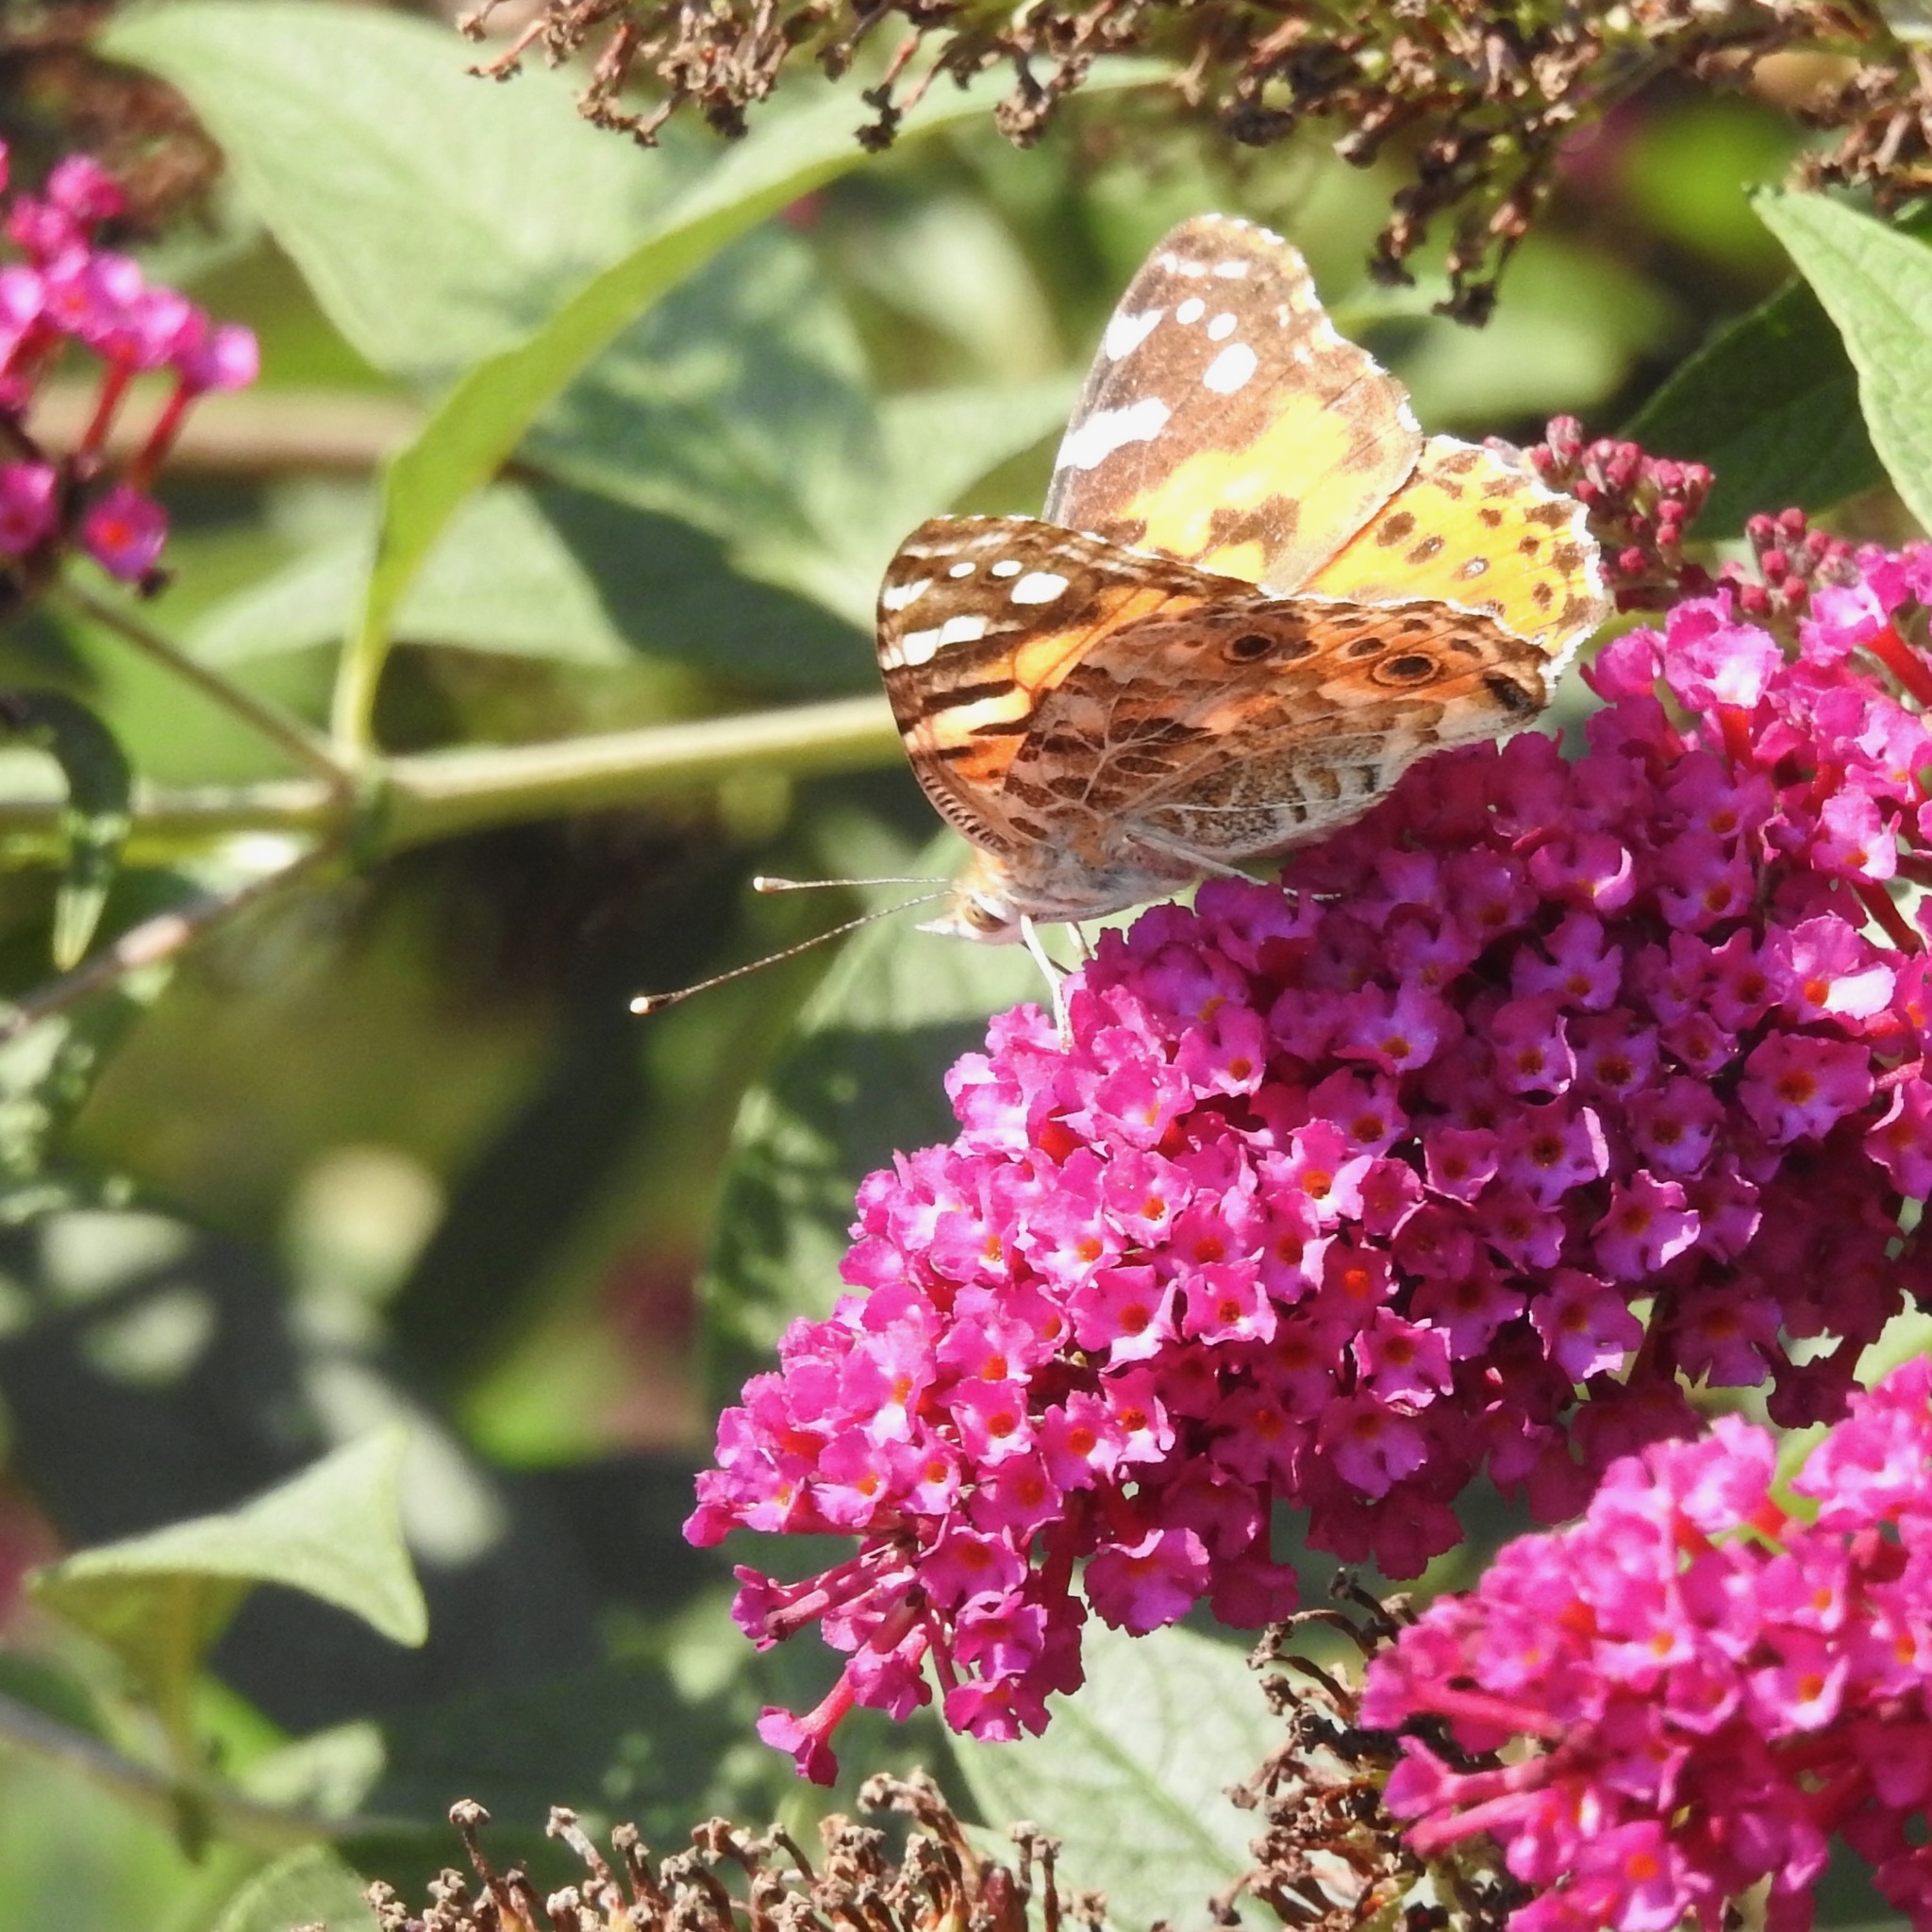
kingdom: Animalia
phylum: Arthropoda
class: Insecta
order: Lepidoptera
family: Nymphalidae
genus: Vanessa
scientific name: Vanessa cardui
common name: Painted lady
